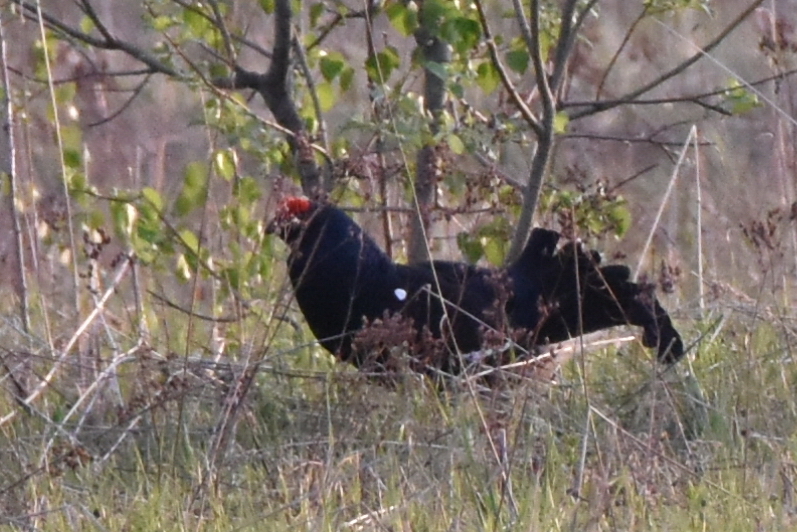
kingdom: Animalia
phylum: Chordata
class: Aves
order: Galliformes
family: Phasianidae
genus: Lyrurus
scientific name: Lyrurus tetrix
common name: Black grouse
